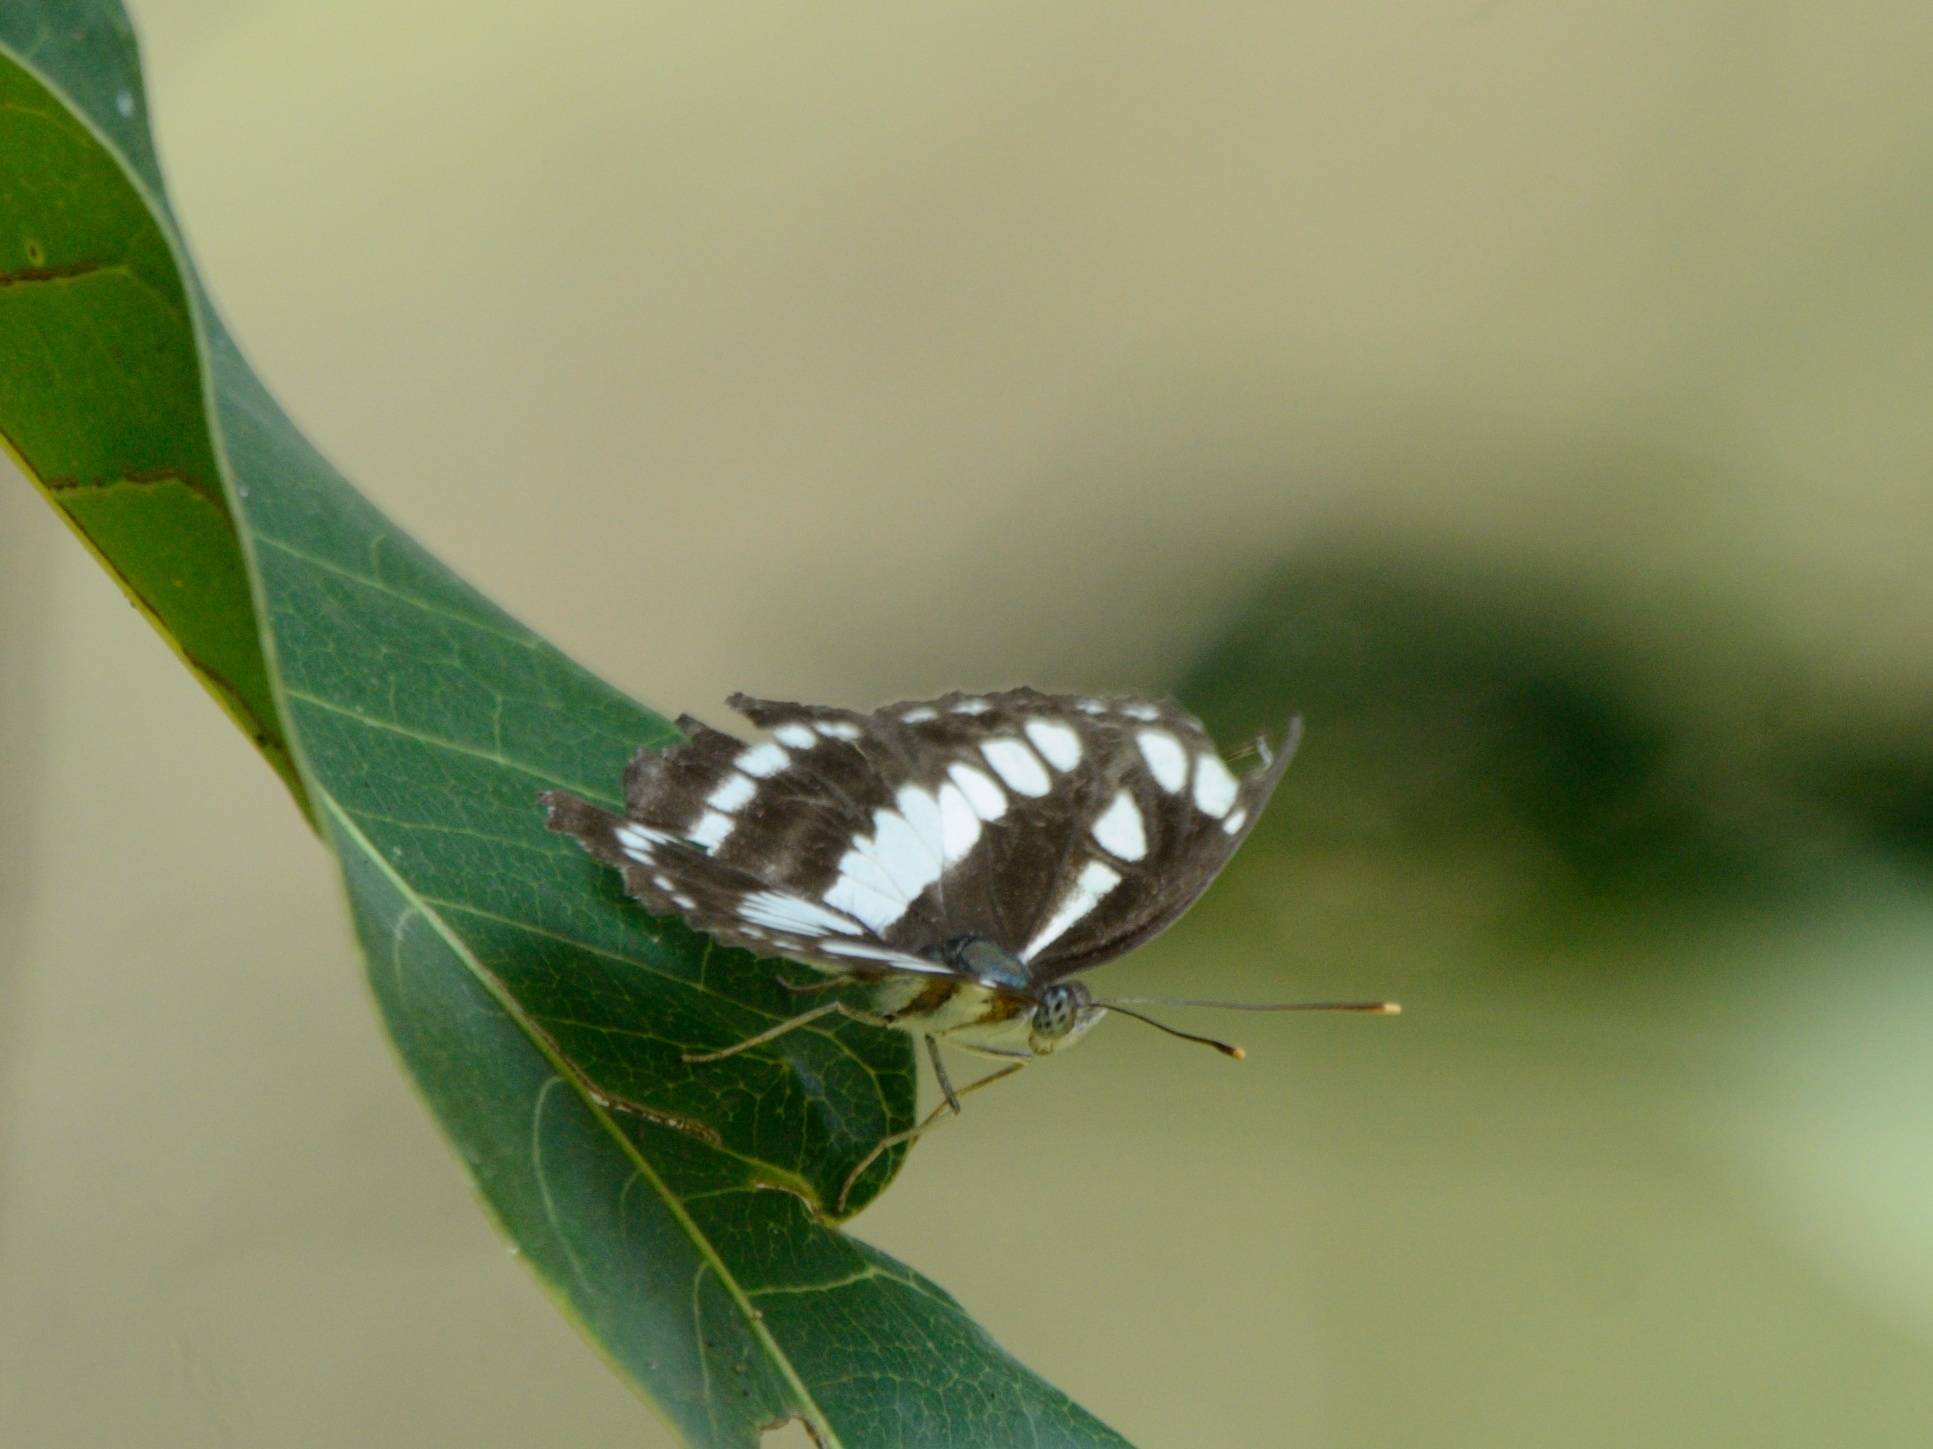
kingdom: Animalia
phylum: Arthropoda
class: Insecta
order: Lepidoptera
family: Nymphalidae
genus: Neptis
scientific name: Neptis hylas
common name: Common sailer
